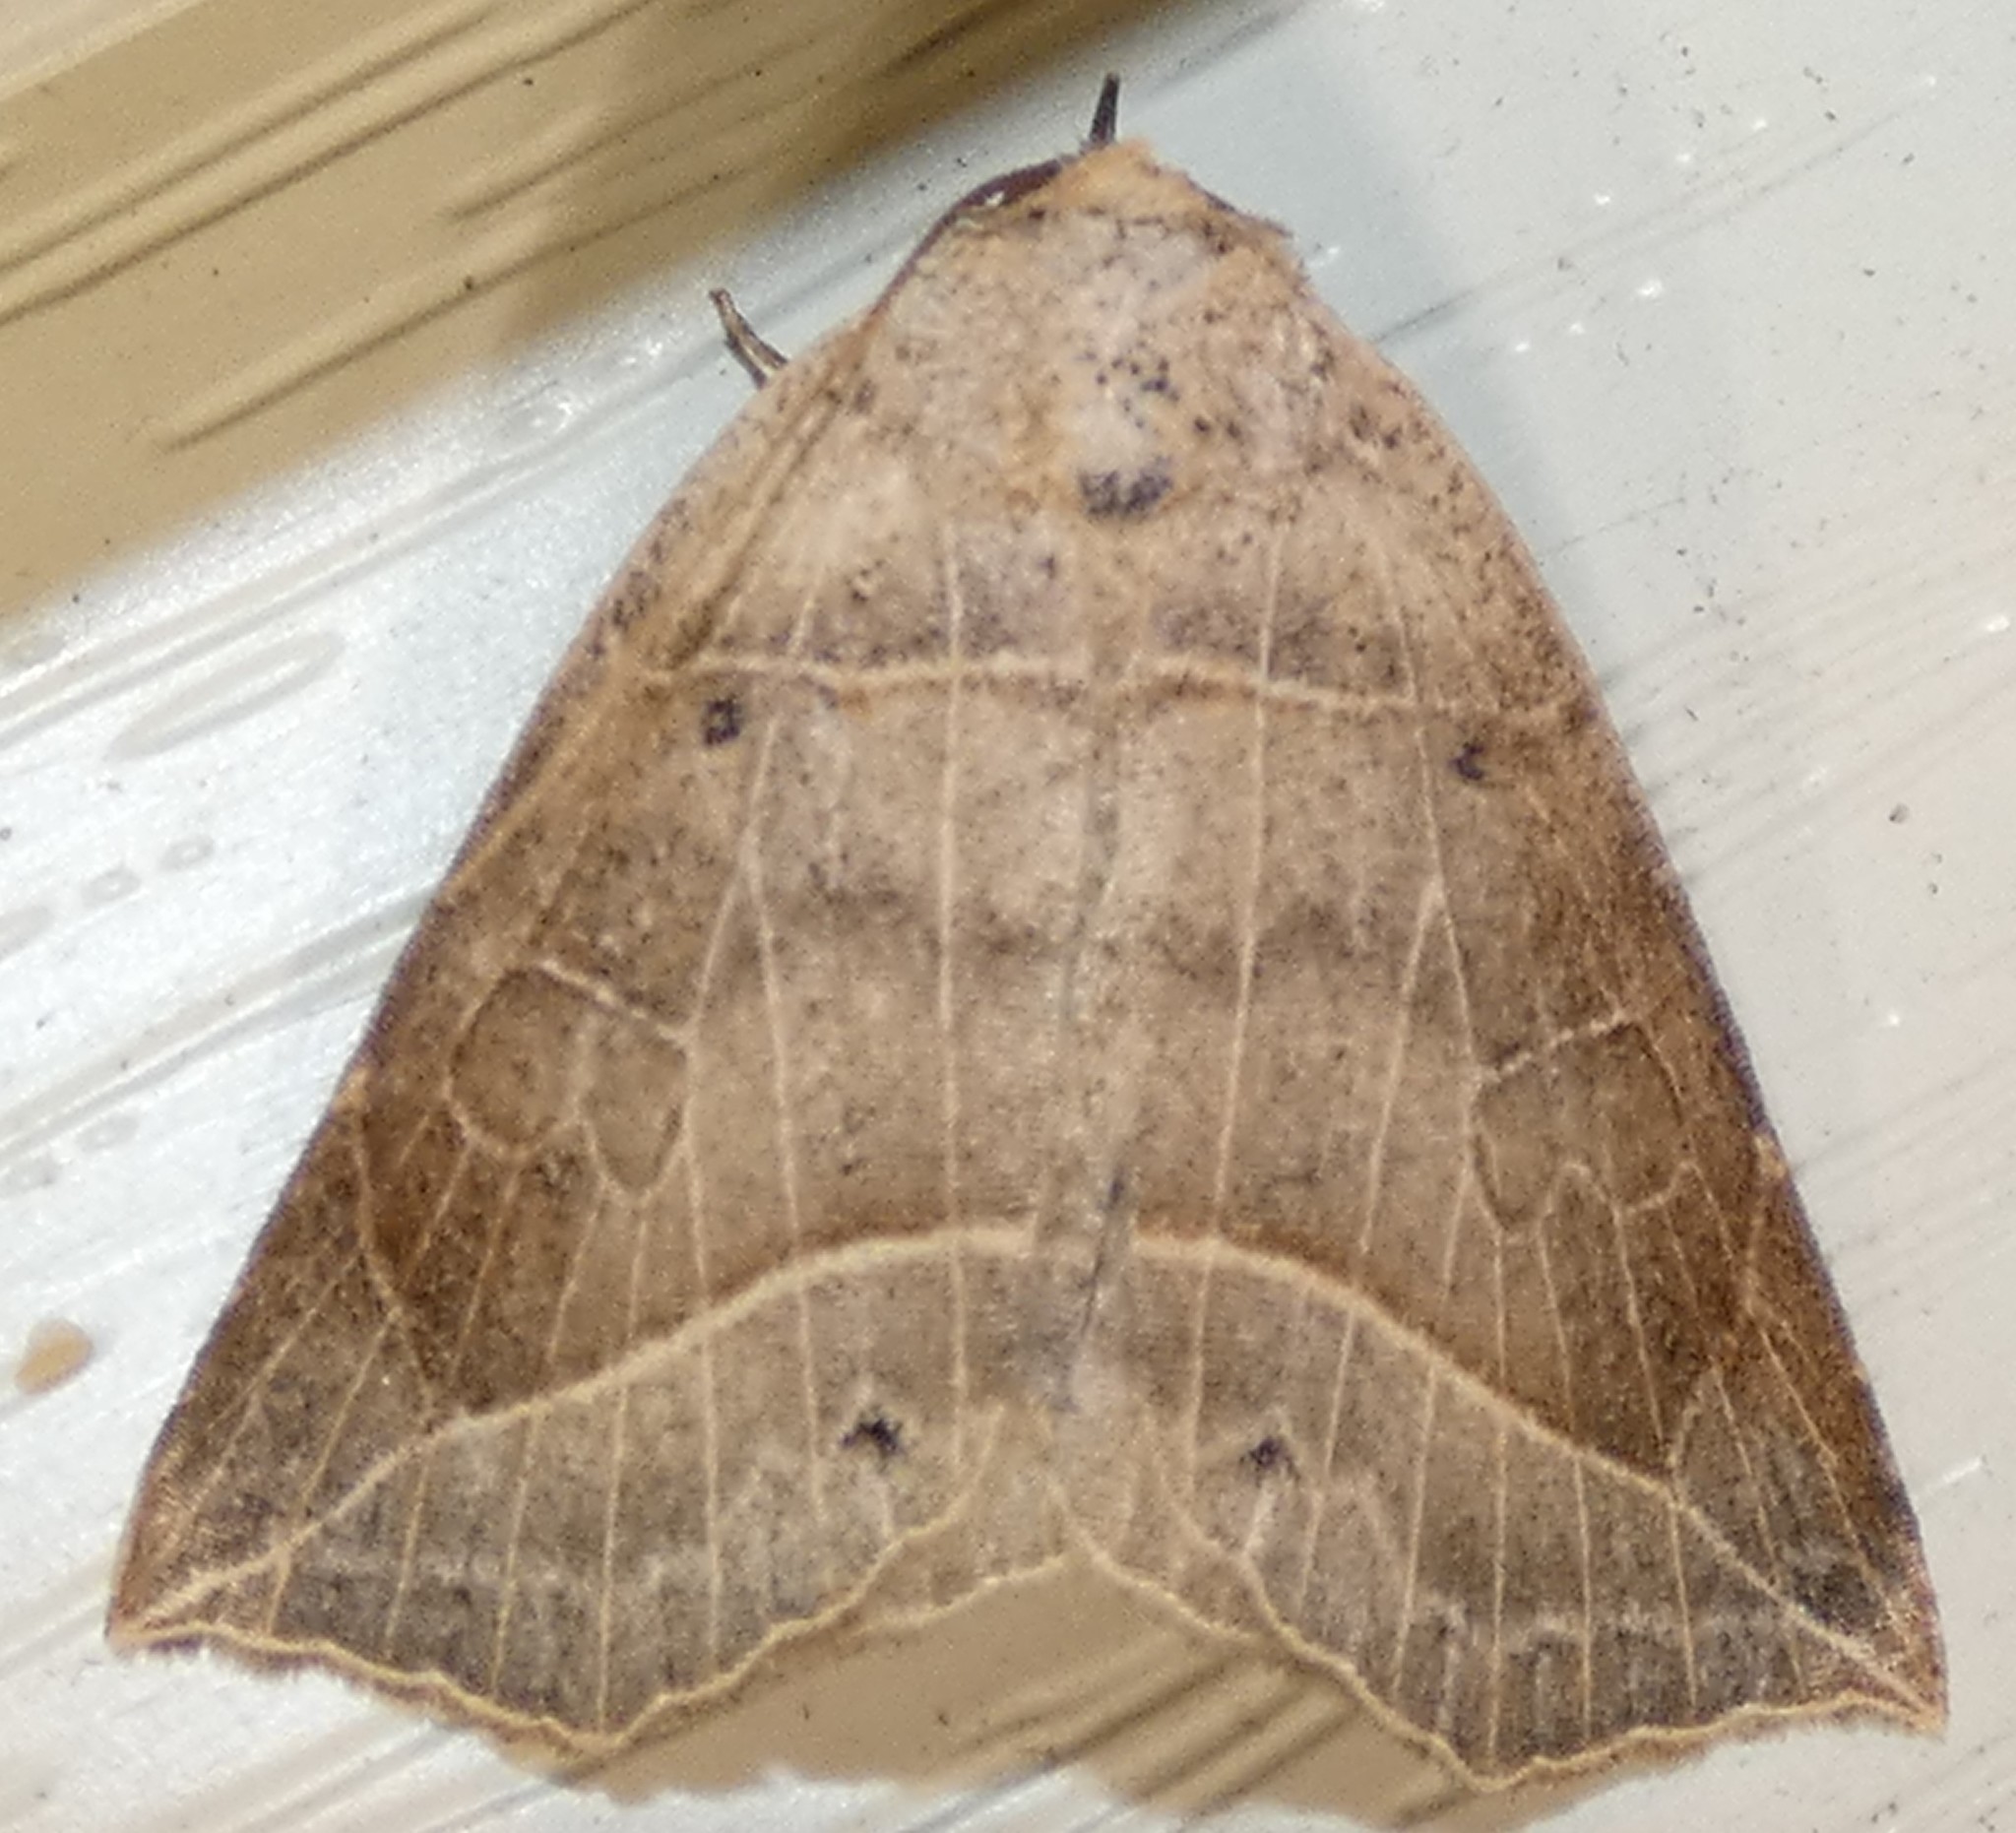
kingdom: Animalia
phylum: Arthropoda
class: Insecta
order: Lepidoptera
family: Erebidae
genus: Isogona
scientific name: Isogona tenuis
